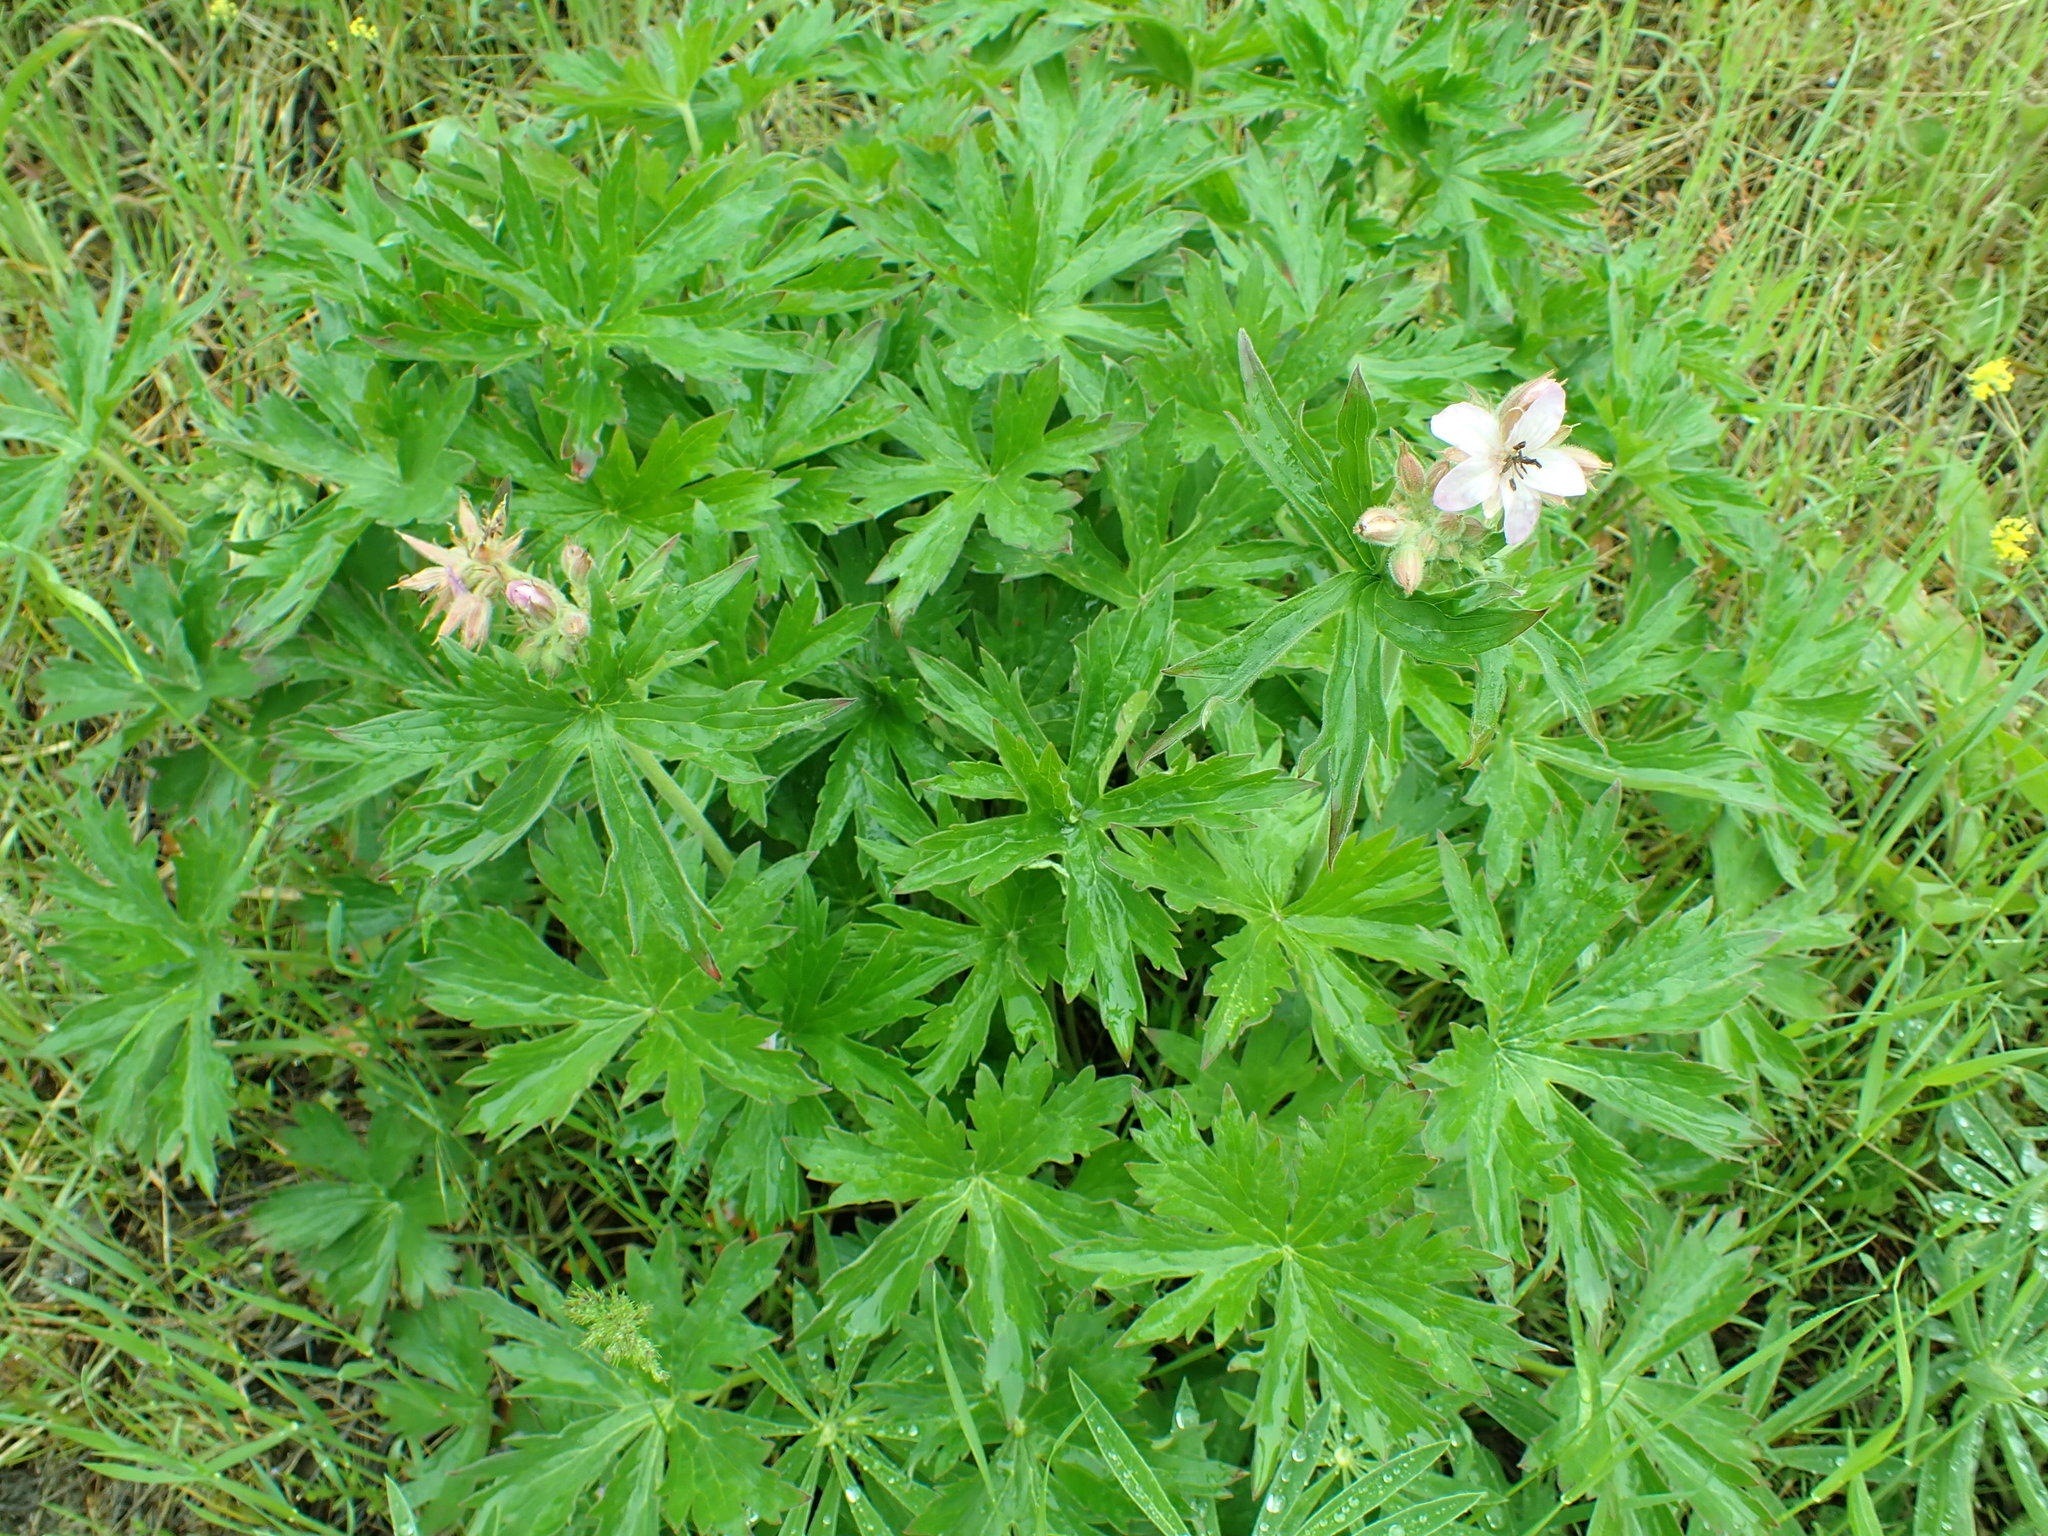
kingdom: Plantae
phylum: Tracheophyta
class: Magnoliopsida
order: Geraniales
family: Geraniaceae
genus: Geranium
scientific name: Geranium viscosissimum
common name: Purple geranium
